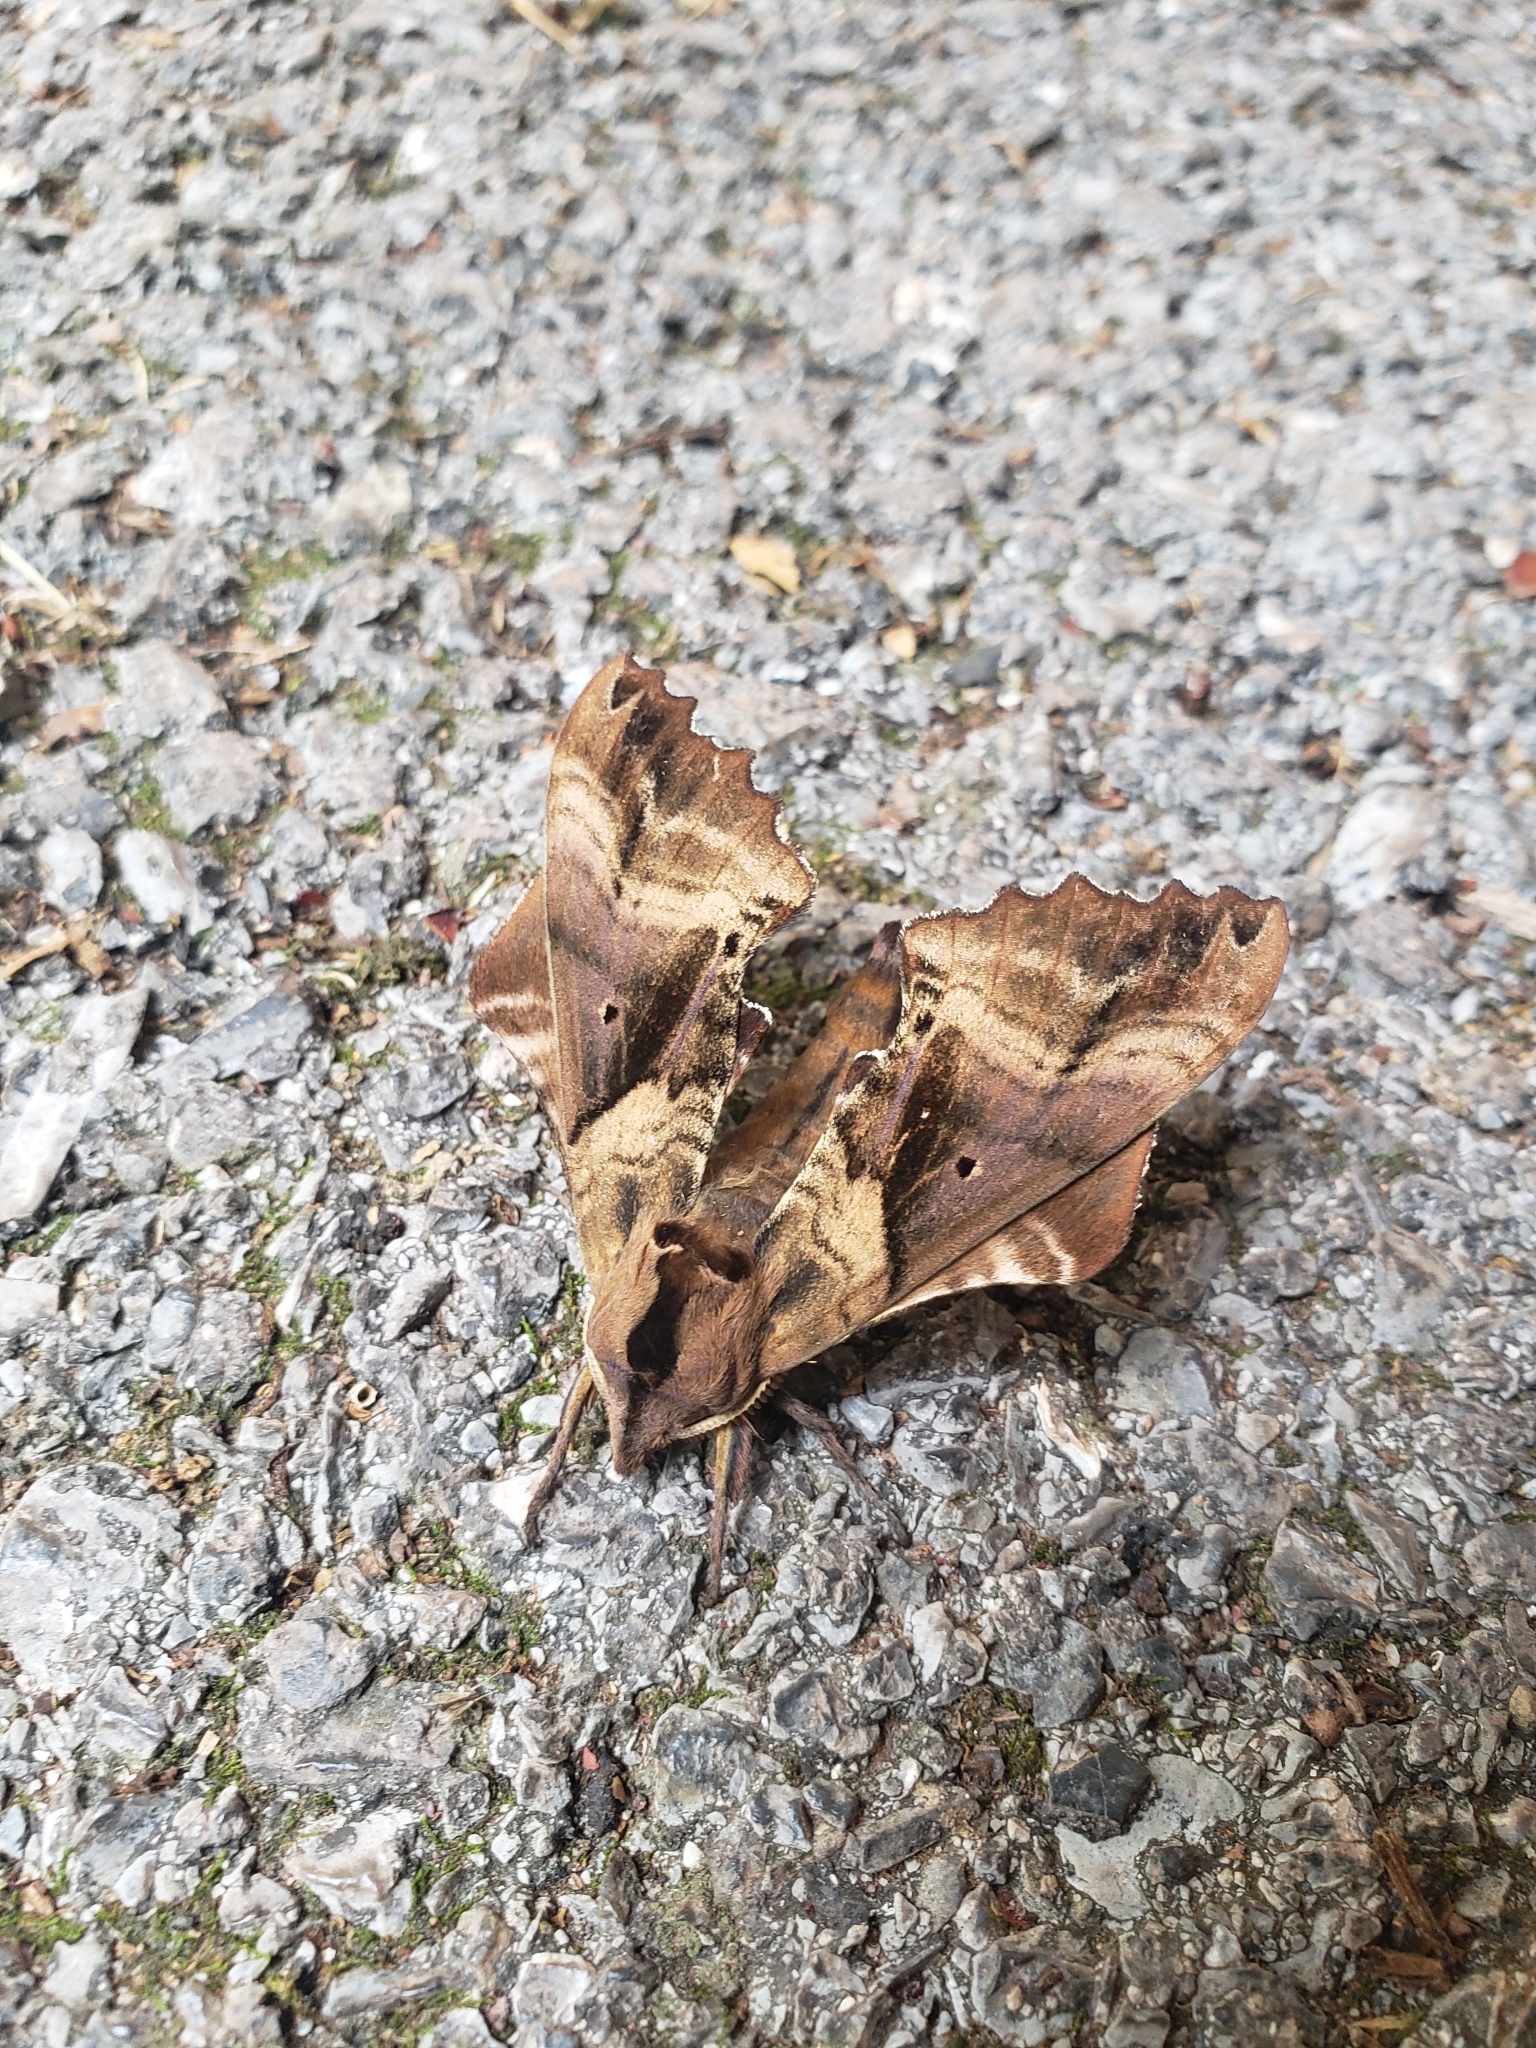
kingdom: Animalia
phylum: Arthropoda
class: Insecta
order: Lepidoptera
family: Sphingidae
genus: Paonias
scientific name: Paonias excaecata
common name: Blind-eyed sphinx
